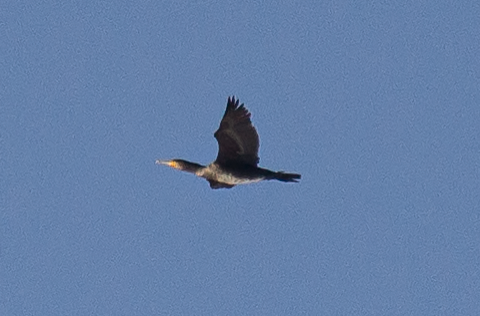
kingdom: Animalia
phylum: Chordata
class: Aves
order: Suliformes
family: Phalacrocoracidae
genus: Phalacrocorax
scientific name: Phalacrocorax carbo
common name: Great cormorant
